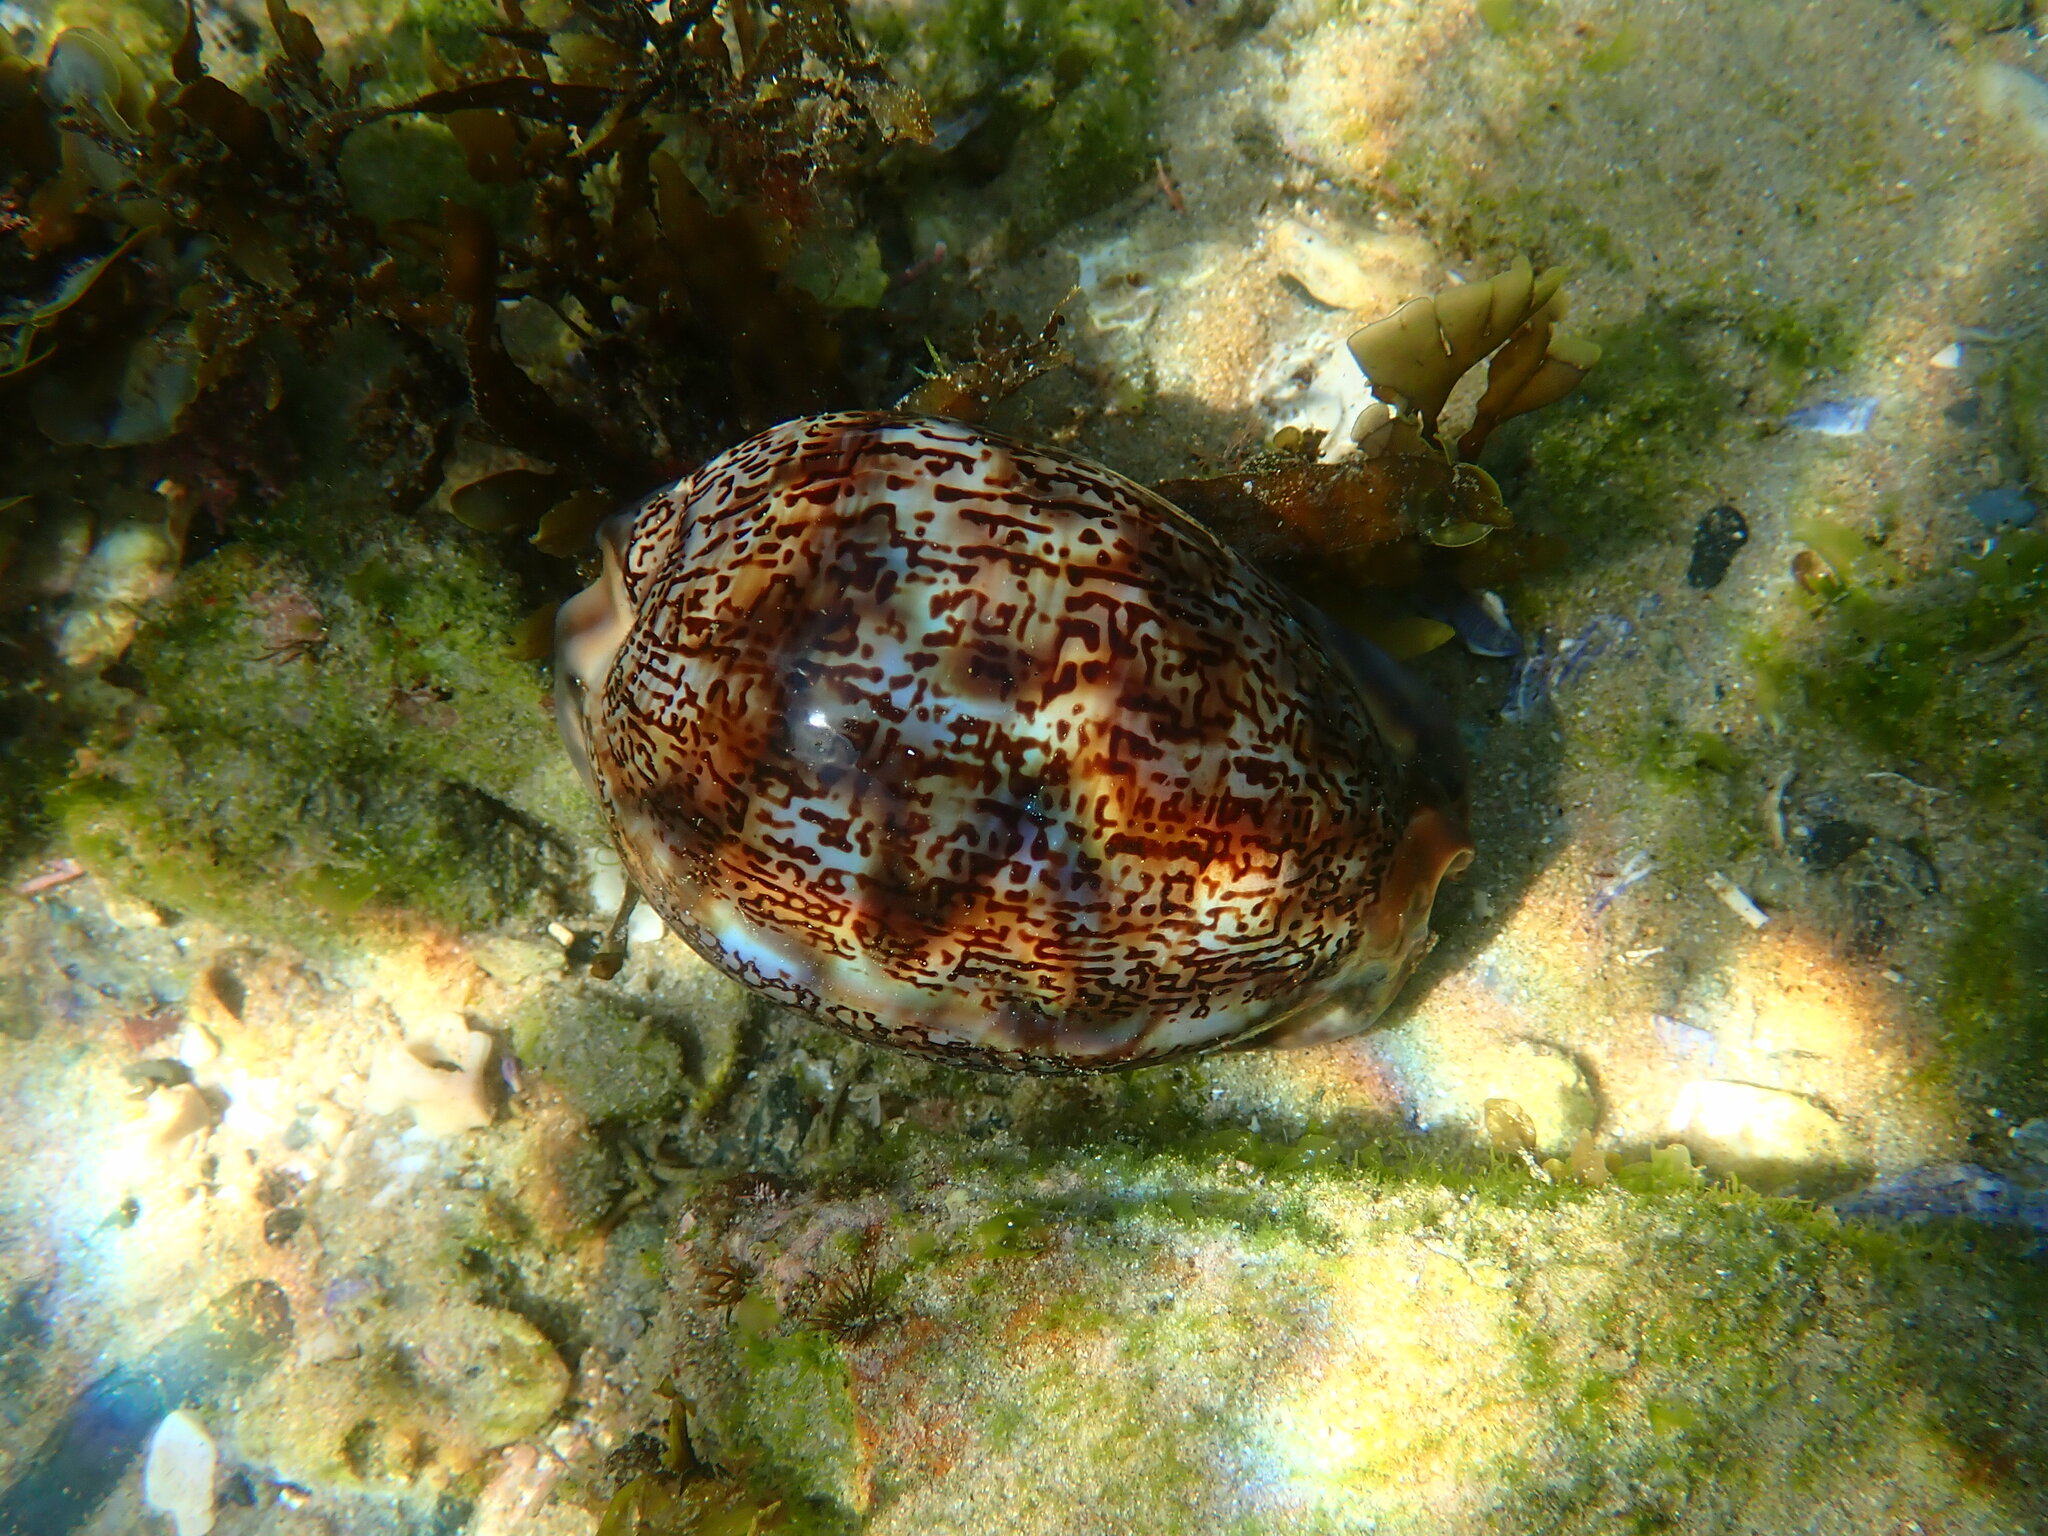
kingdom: Animalia
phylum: Mollusca
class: Gastropoda
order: Littorinimorpha
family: Cypraeidae
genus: Mauritia
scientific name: Mauritia arabica
